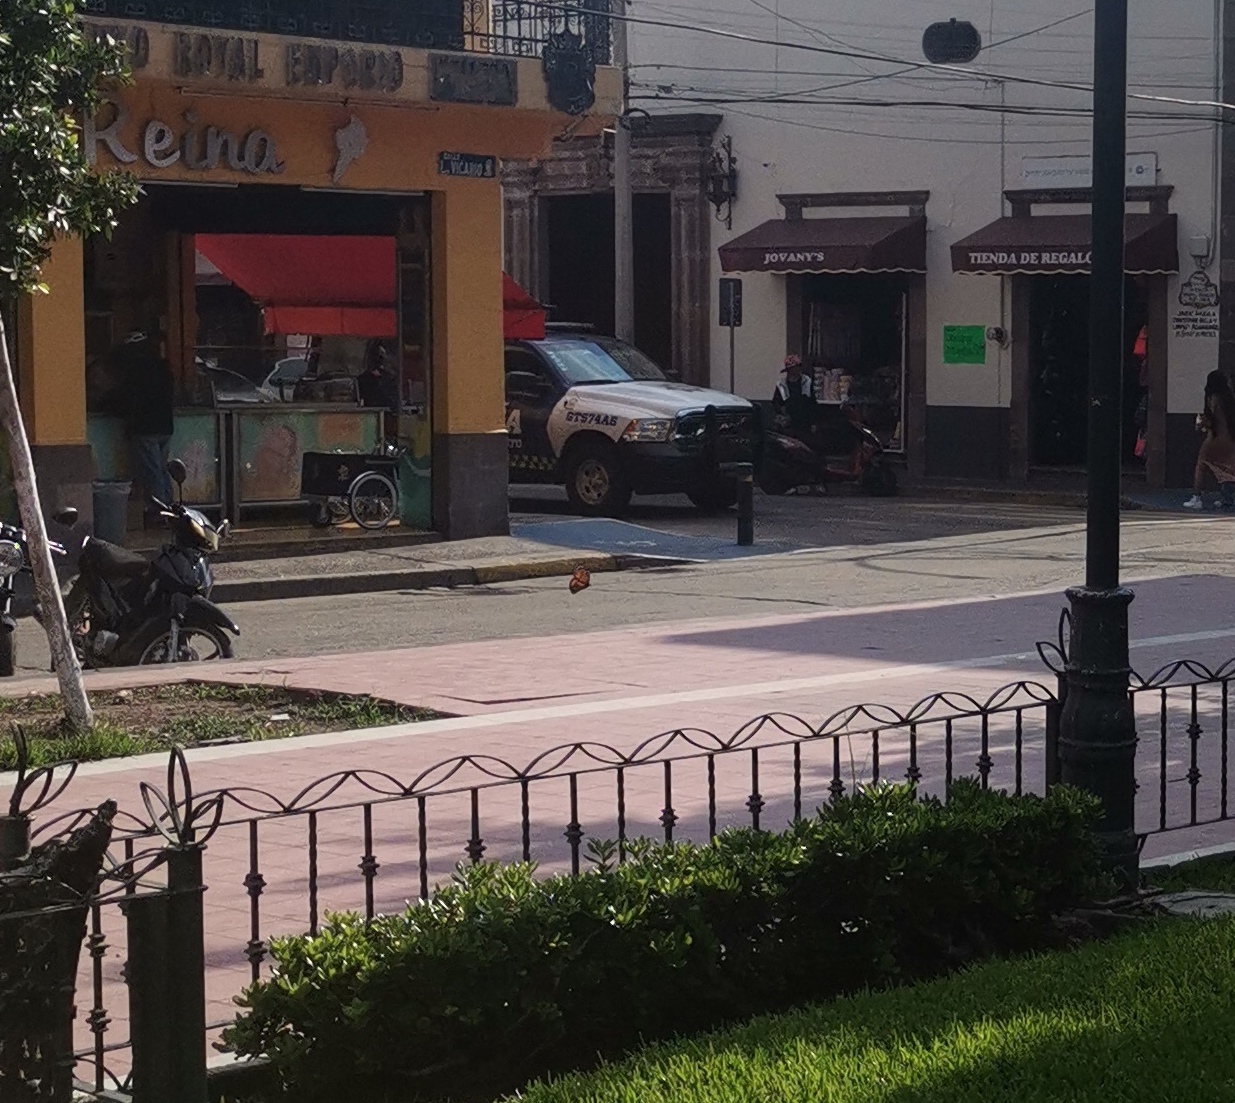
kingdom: Animalia
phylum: Arthropoda
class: Insecta
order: Lepidoptera
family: Nymphalidae
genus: Danaus
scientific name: Danaus plexippus
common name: Monarch
